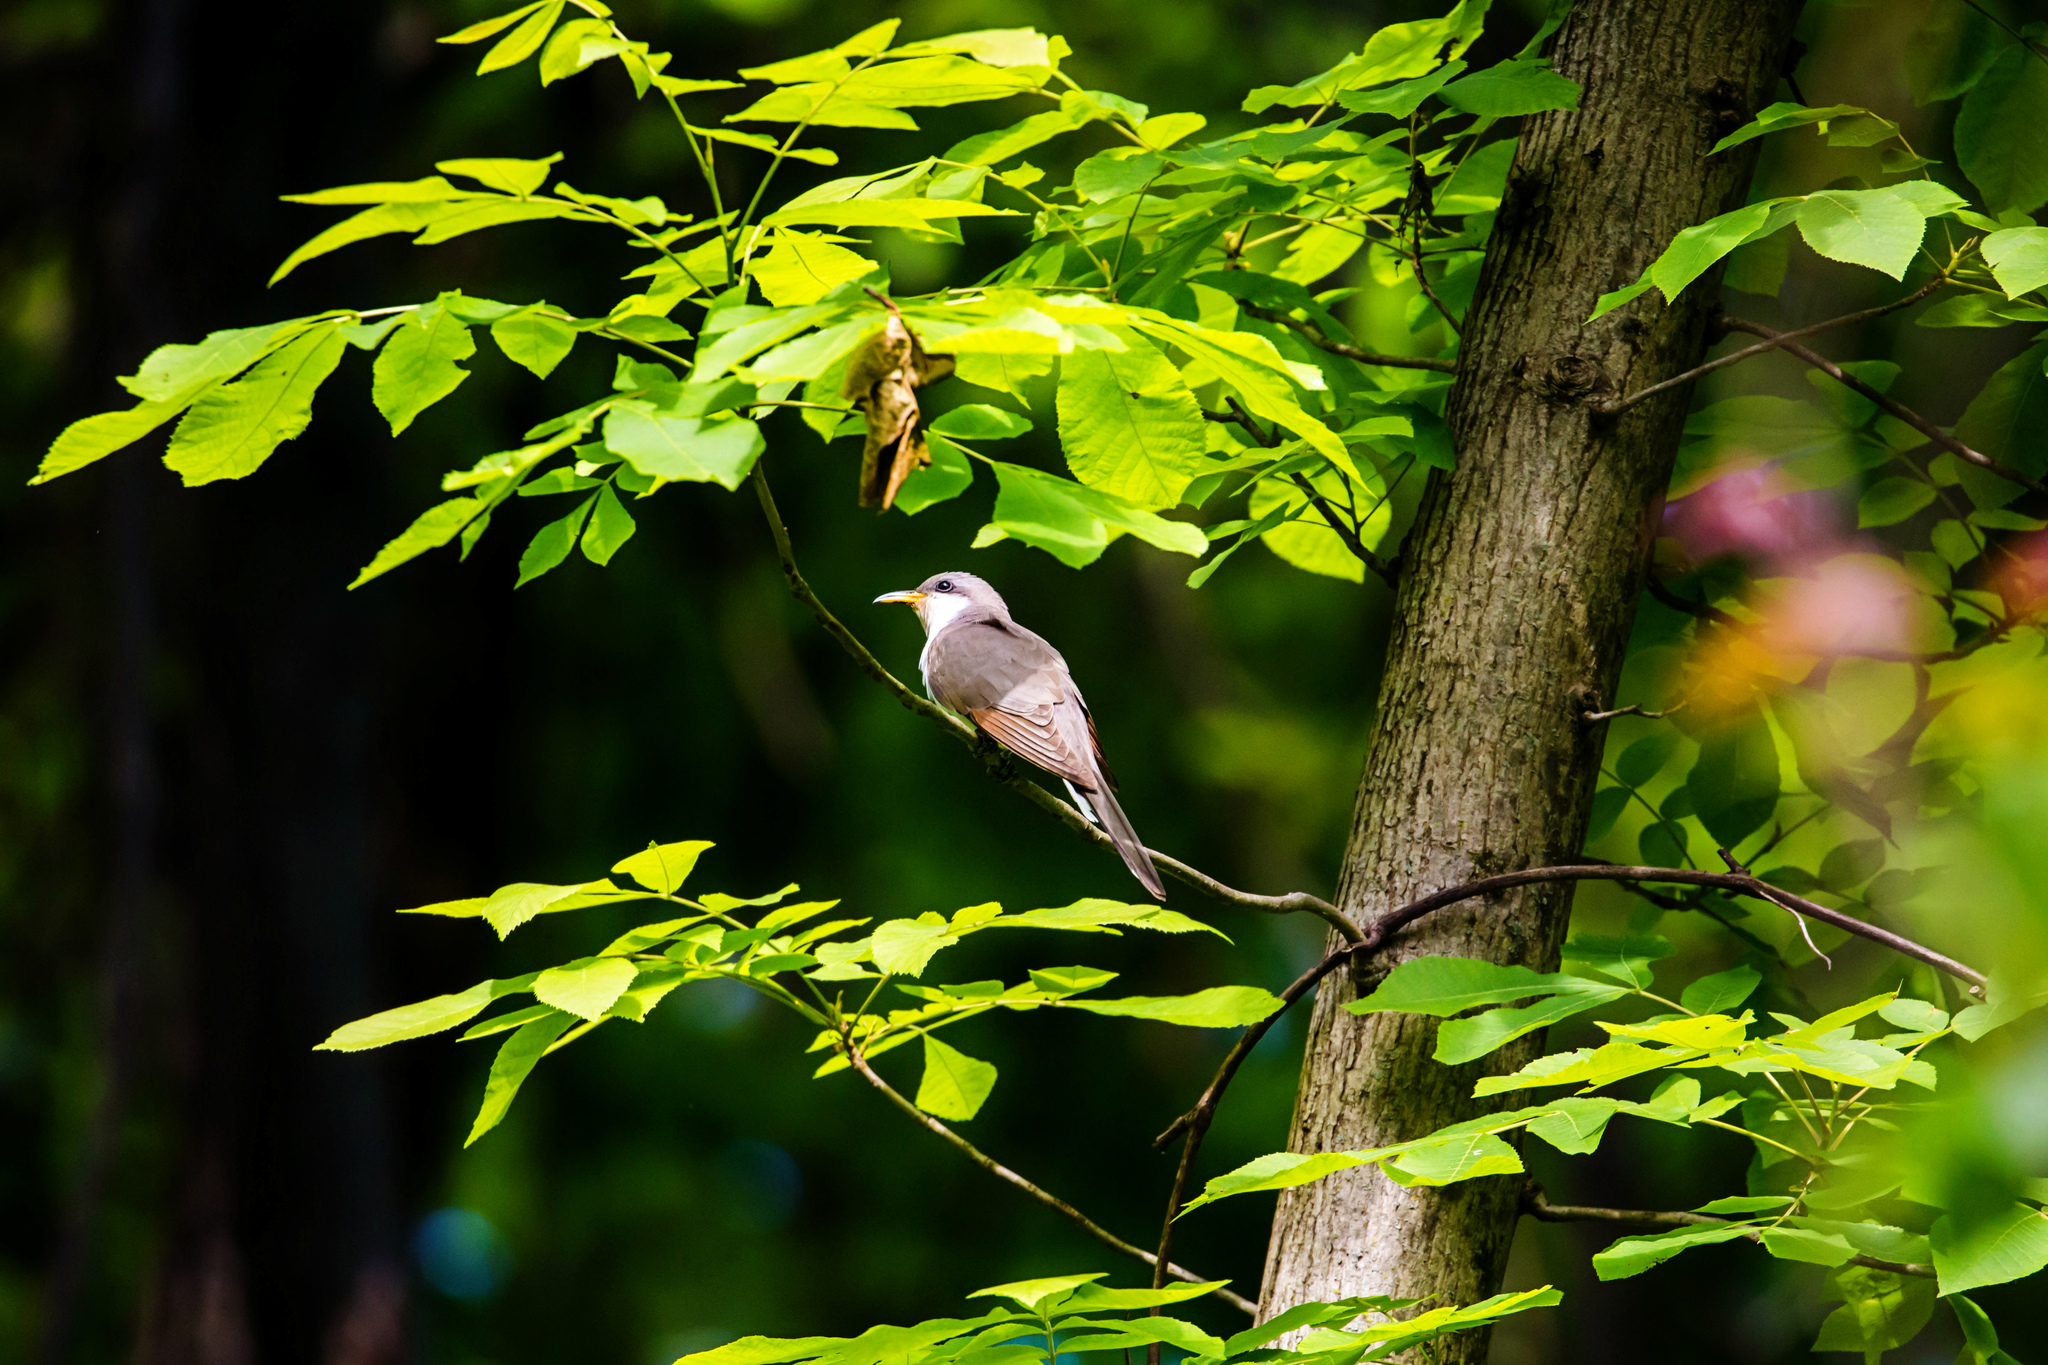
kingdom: Animalia
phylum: Chordata
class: Aves
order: Cuculiformes
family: Cuculidae
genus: Coccyzus
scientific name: Coccyzus americanus
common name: Yellow-billed cuckoo
